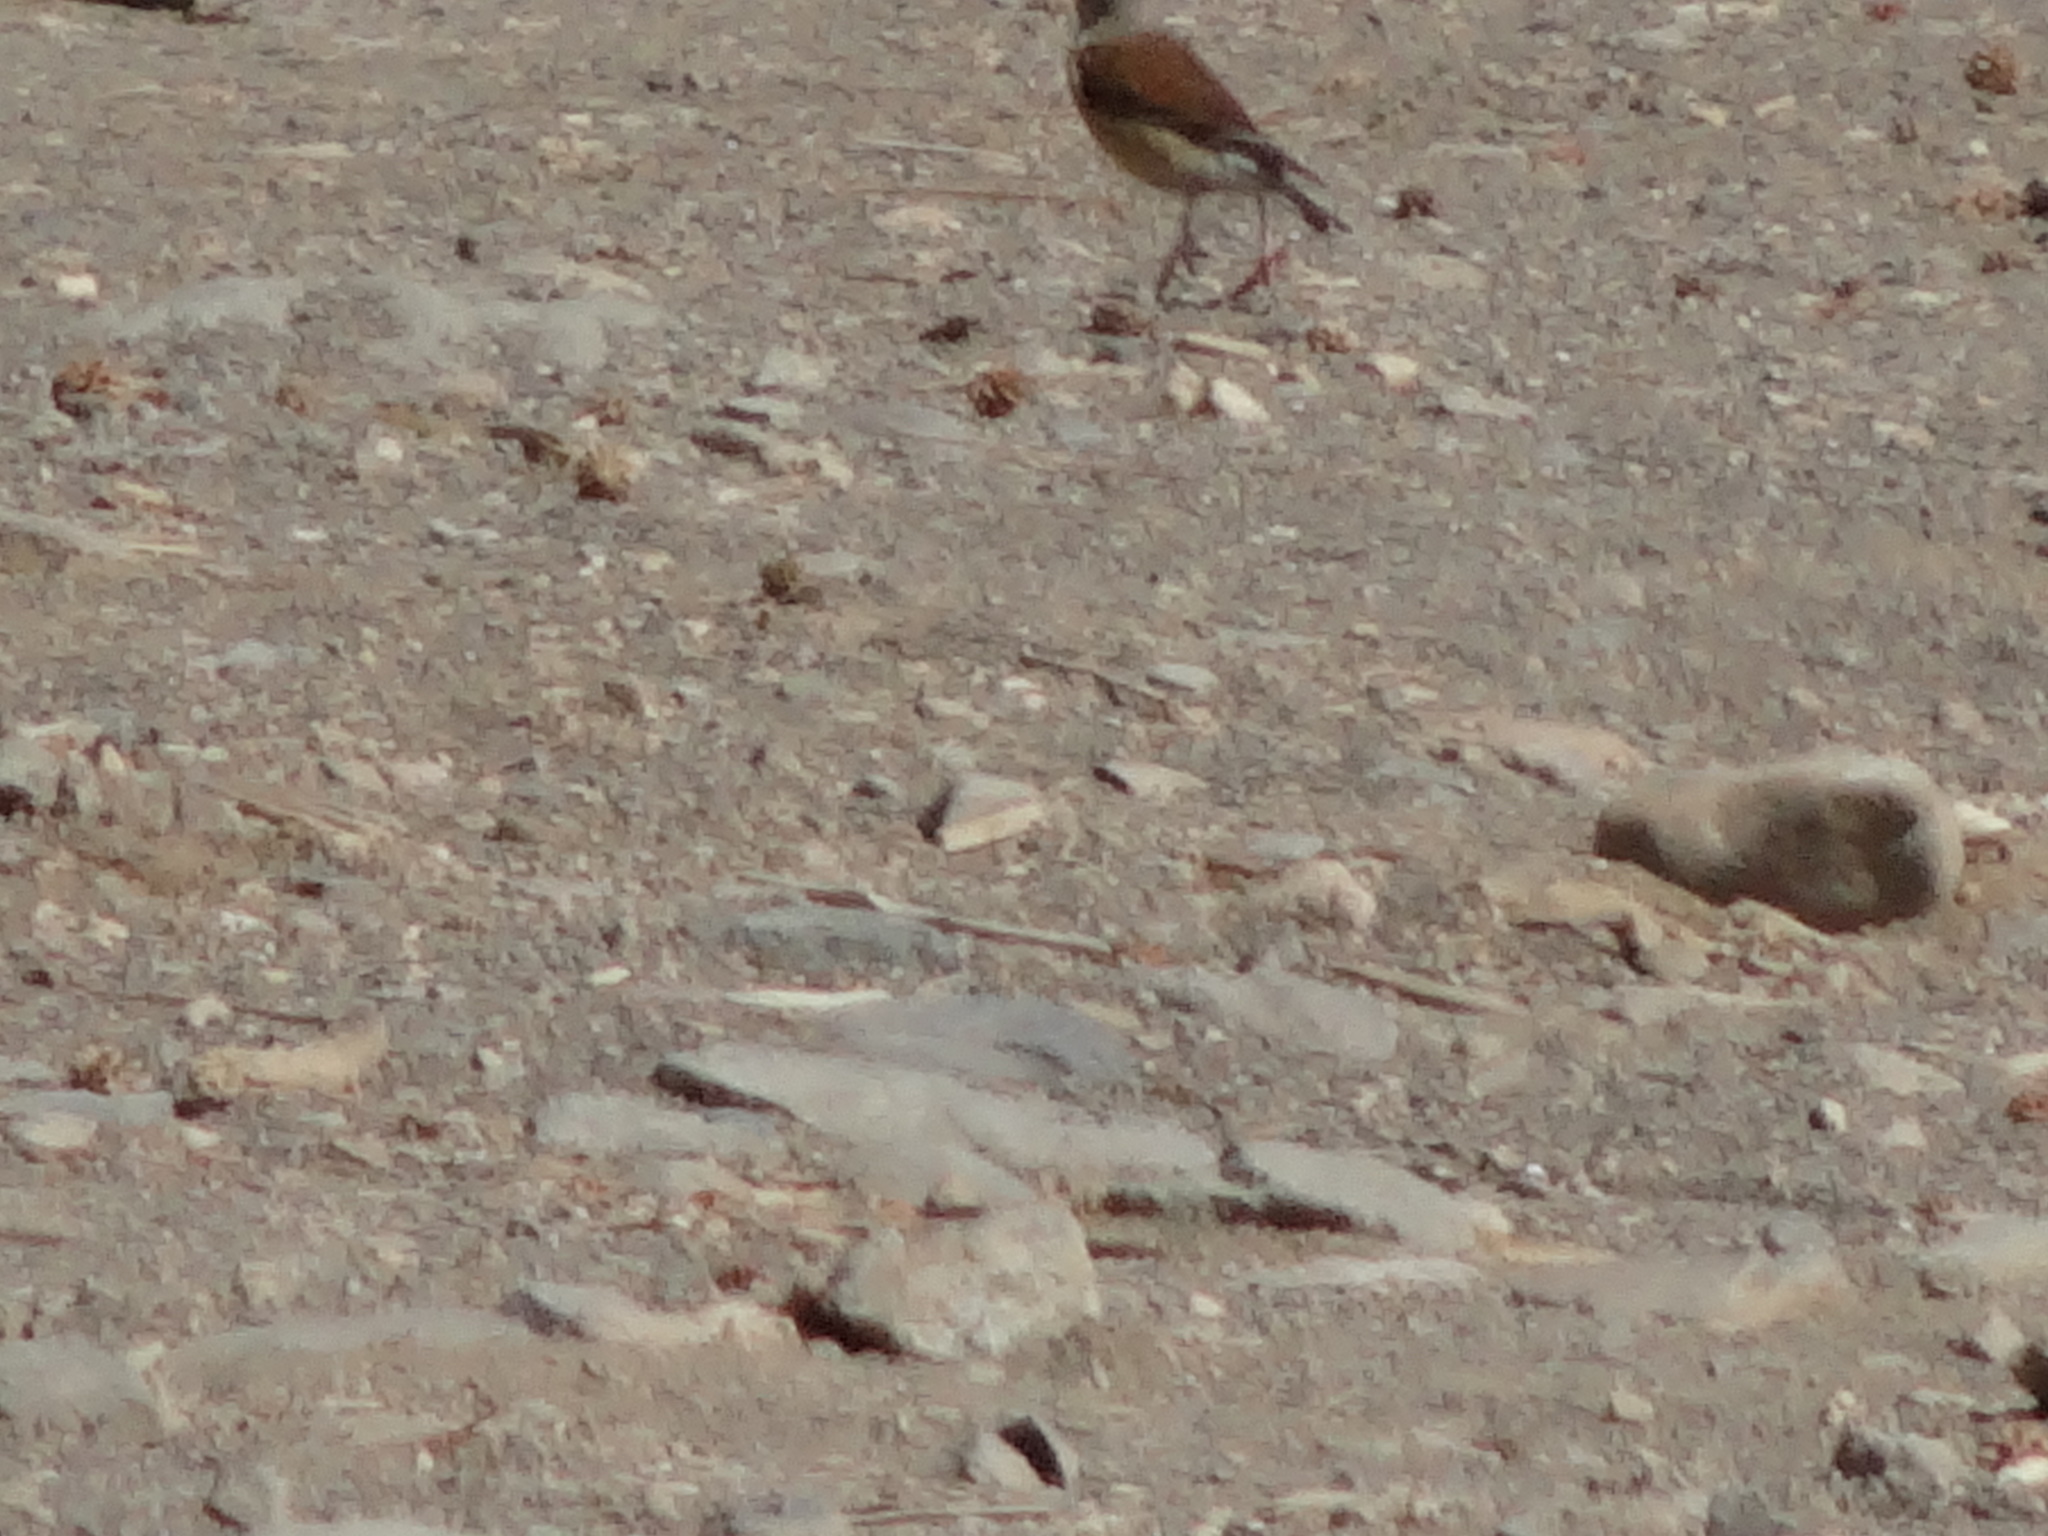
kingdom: Animalia
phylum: Chordata
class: Aves
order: Passeriformes
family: Fringillidae
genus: Linaria
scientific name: Linaria cannabina
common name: Common linnet
